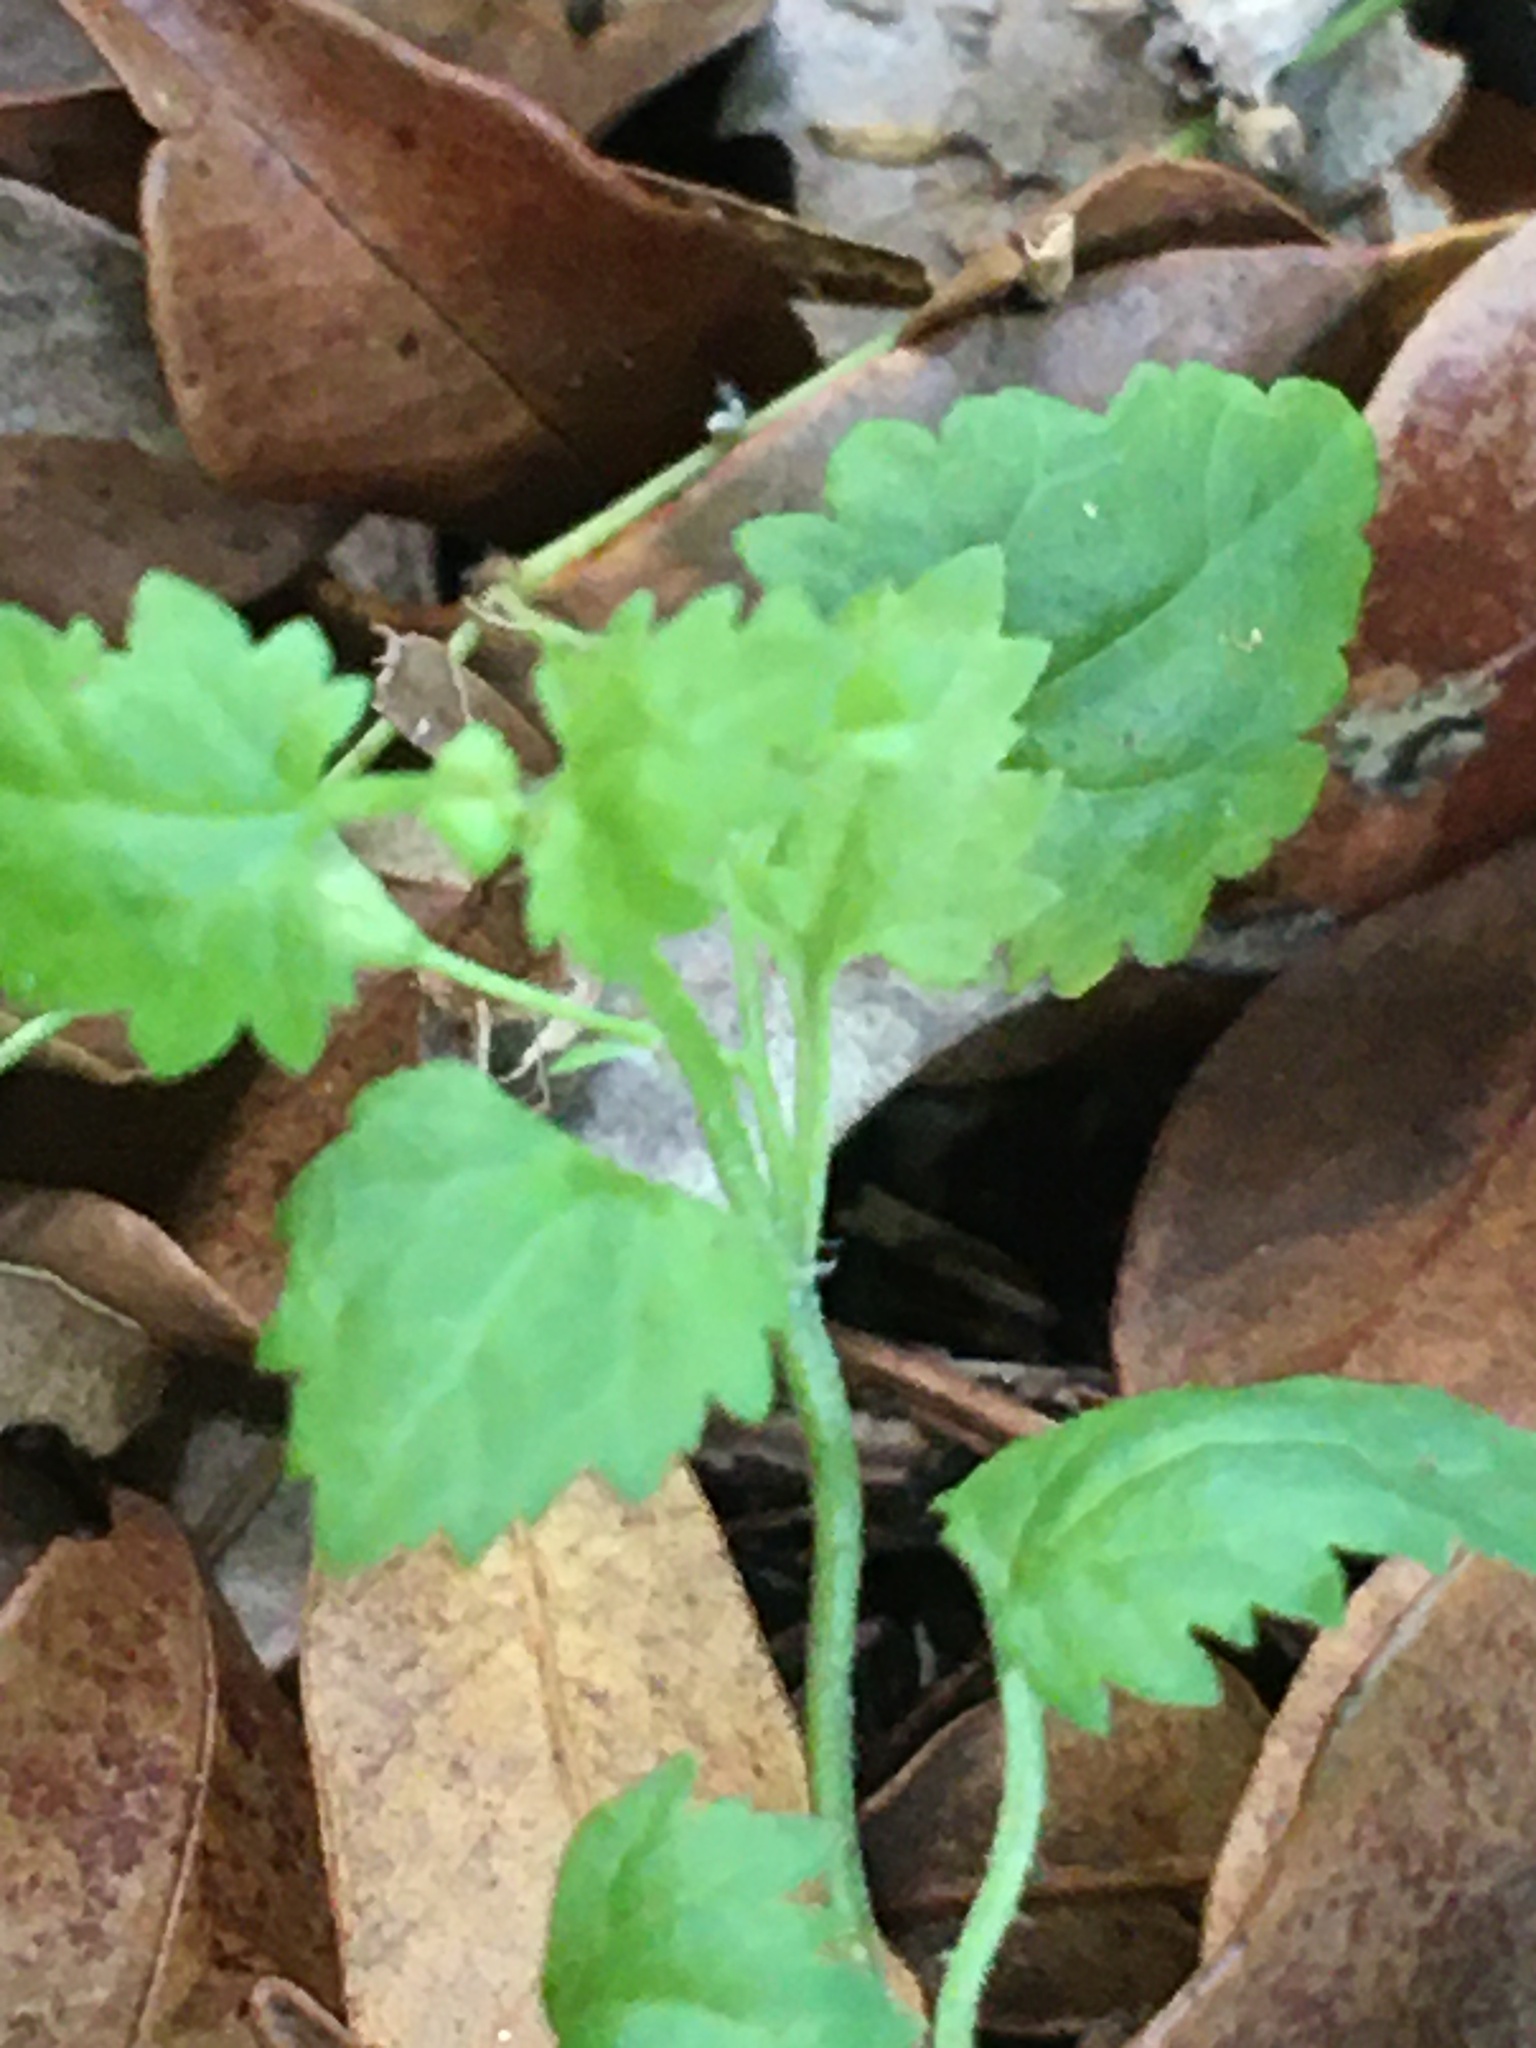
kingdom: Plantae
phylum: Tracheophyta
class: Magnoliopsida
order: Lamiales
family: Plantaginaceae
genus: Veronica
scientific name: Veronica plebeia
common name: Speedwell
